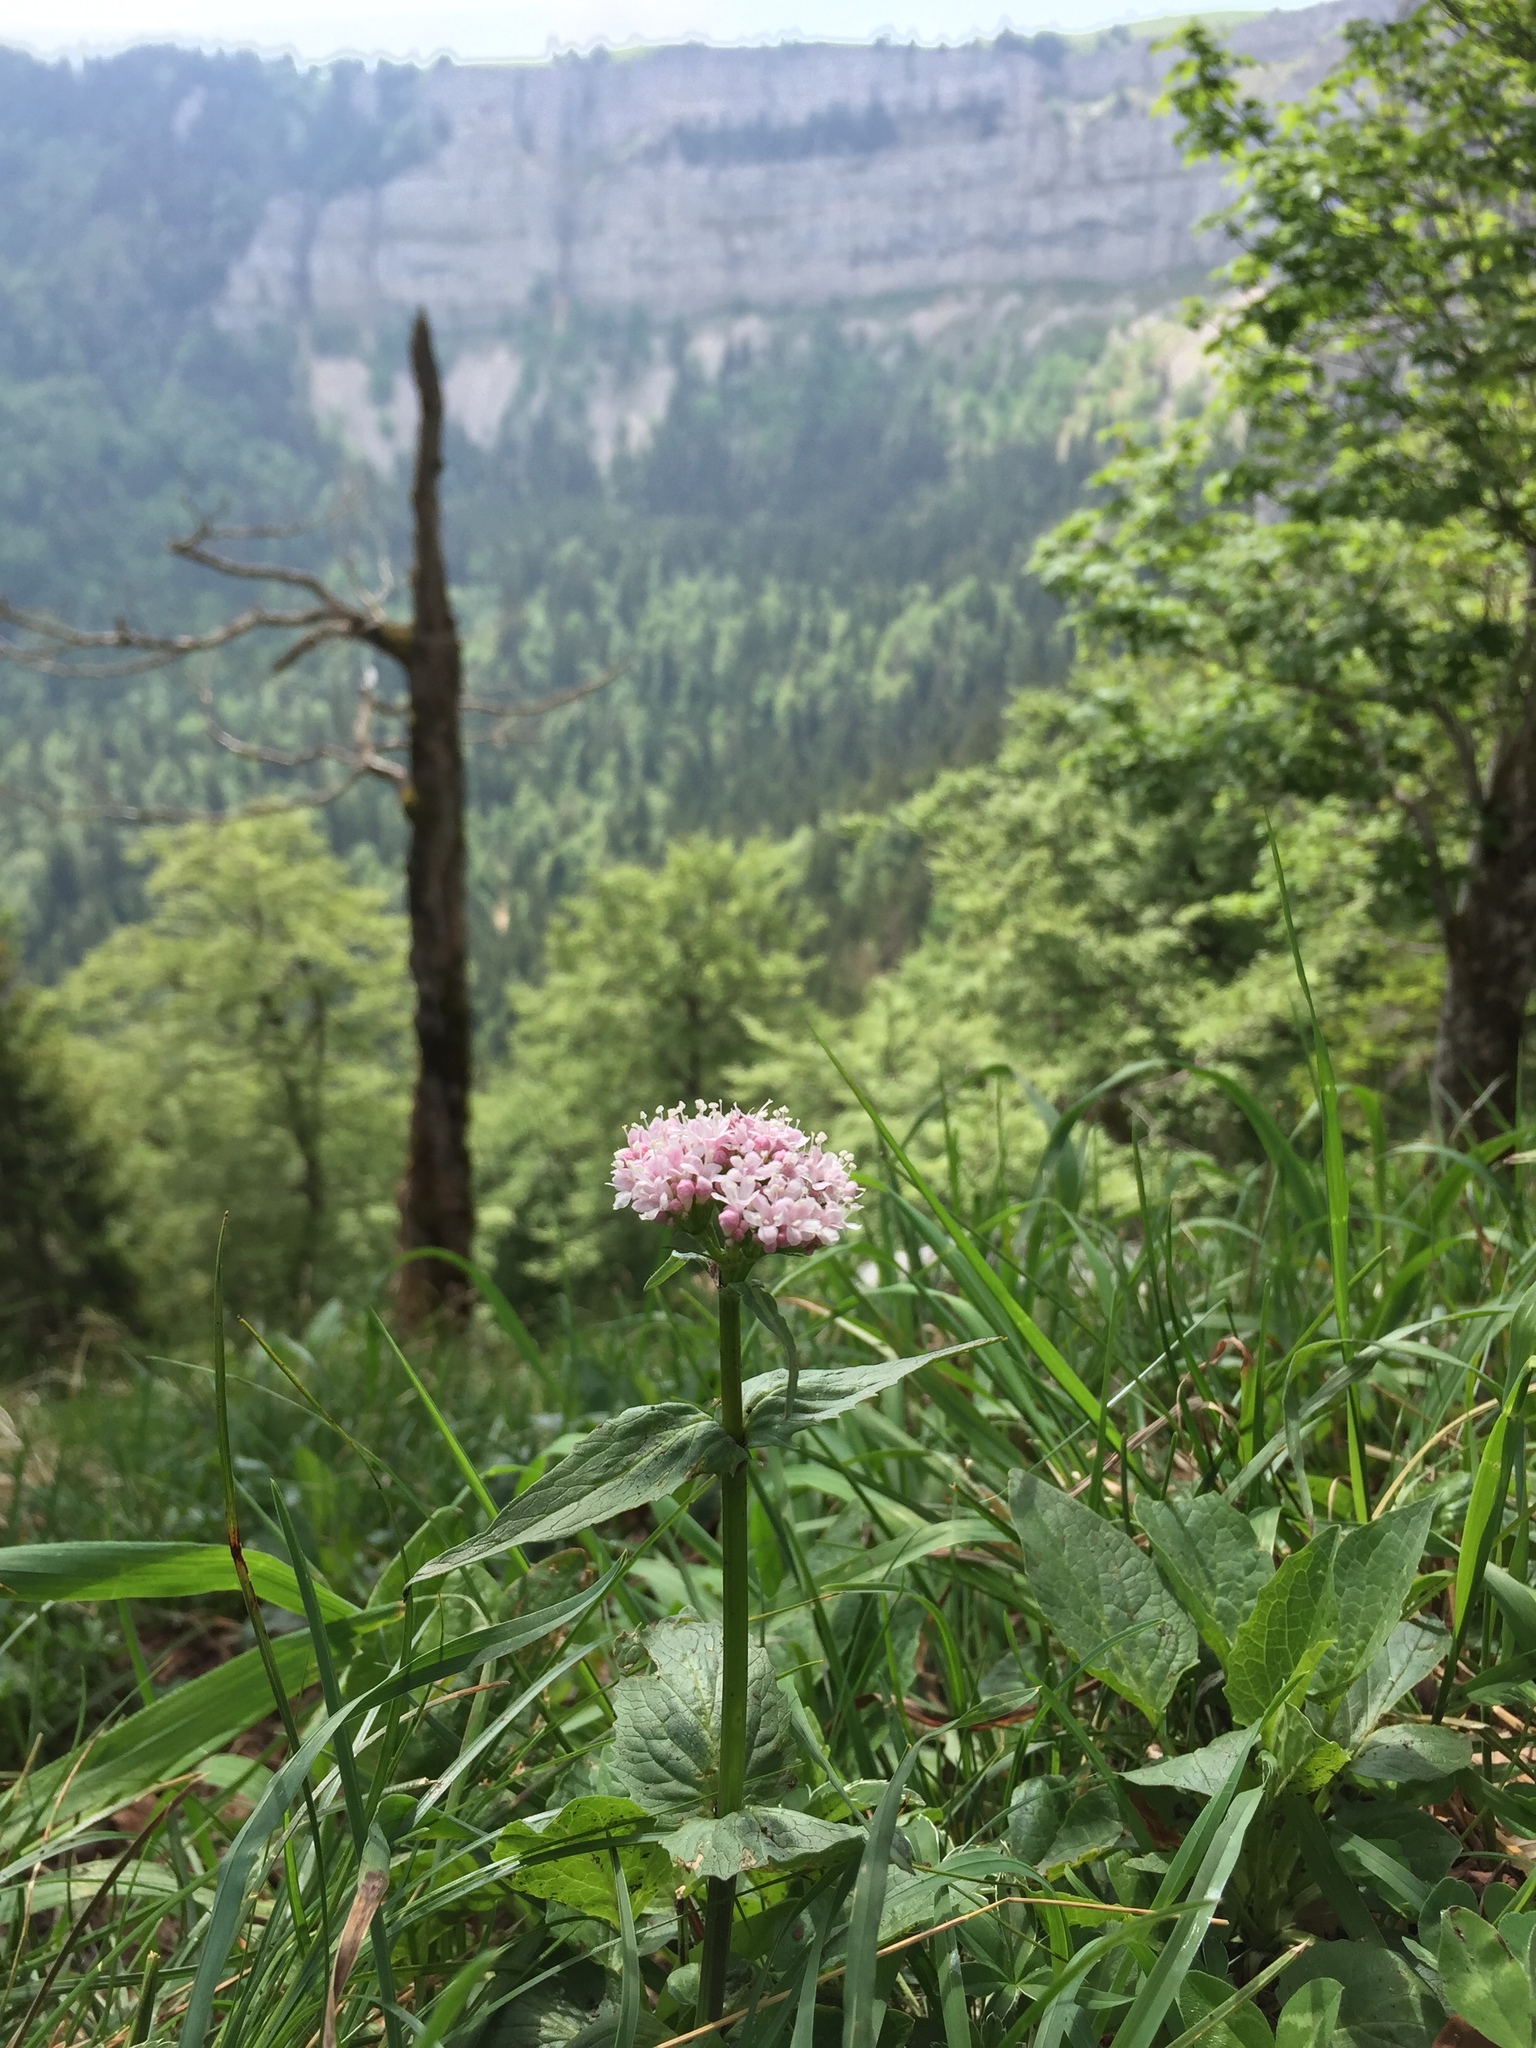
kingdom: Plantae
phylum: Tracheophyta
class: Magnoliopsida
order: Dipsacales
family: Caprifoliaceae
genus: Valeriana
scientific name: Valeriana montana
